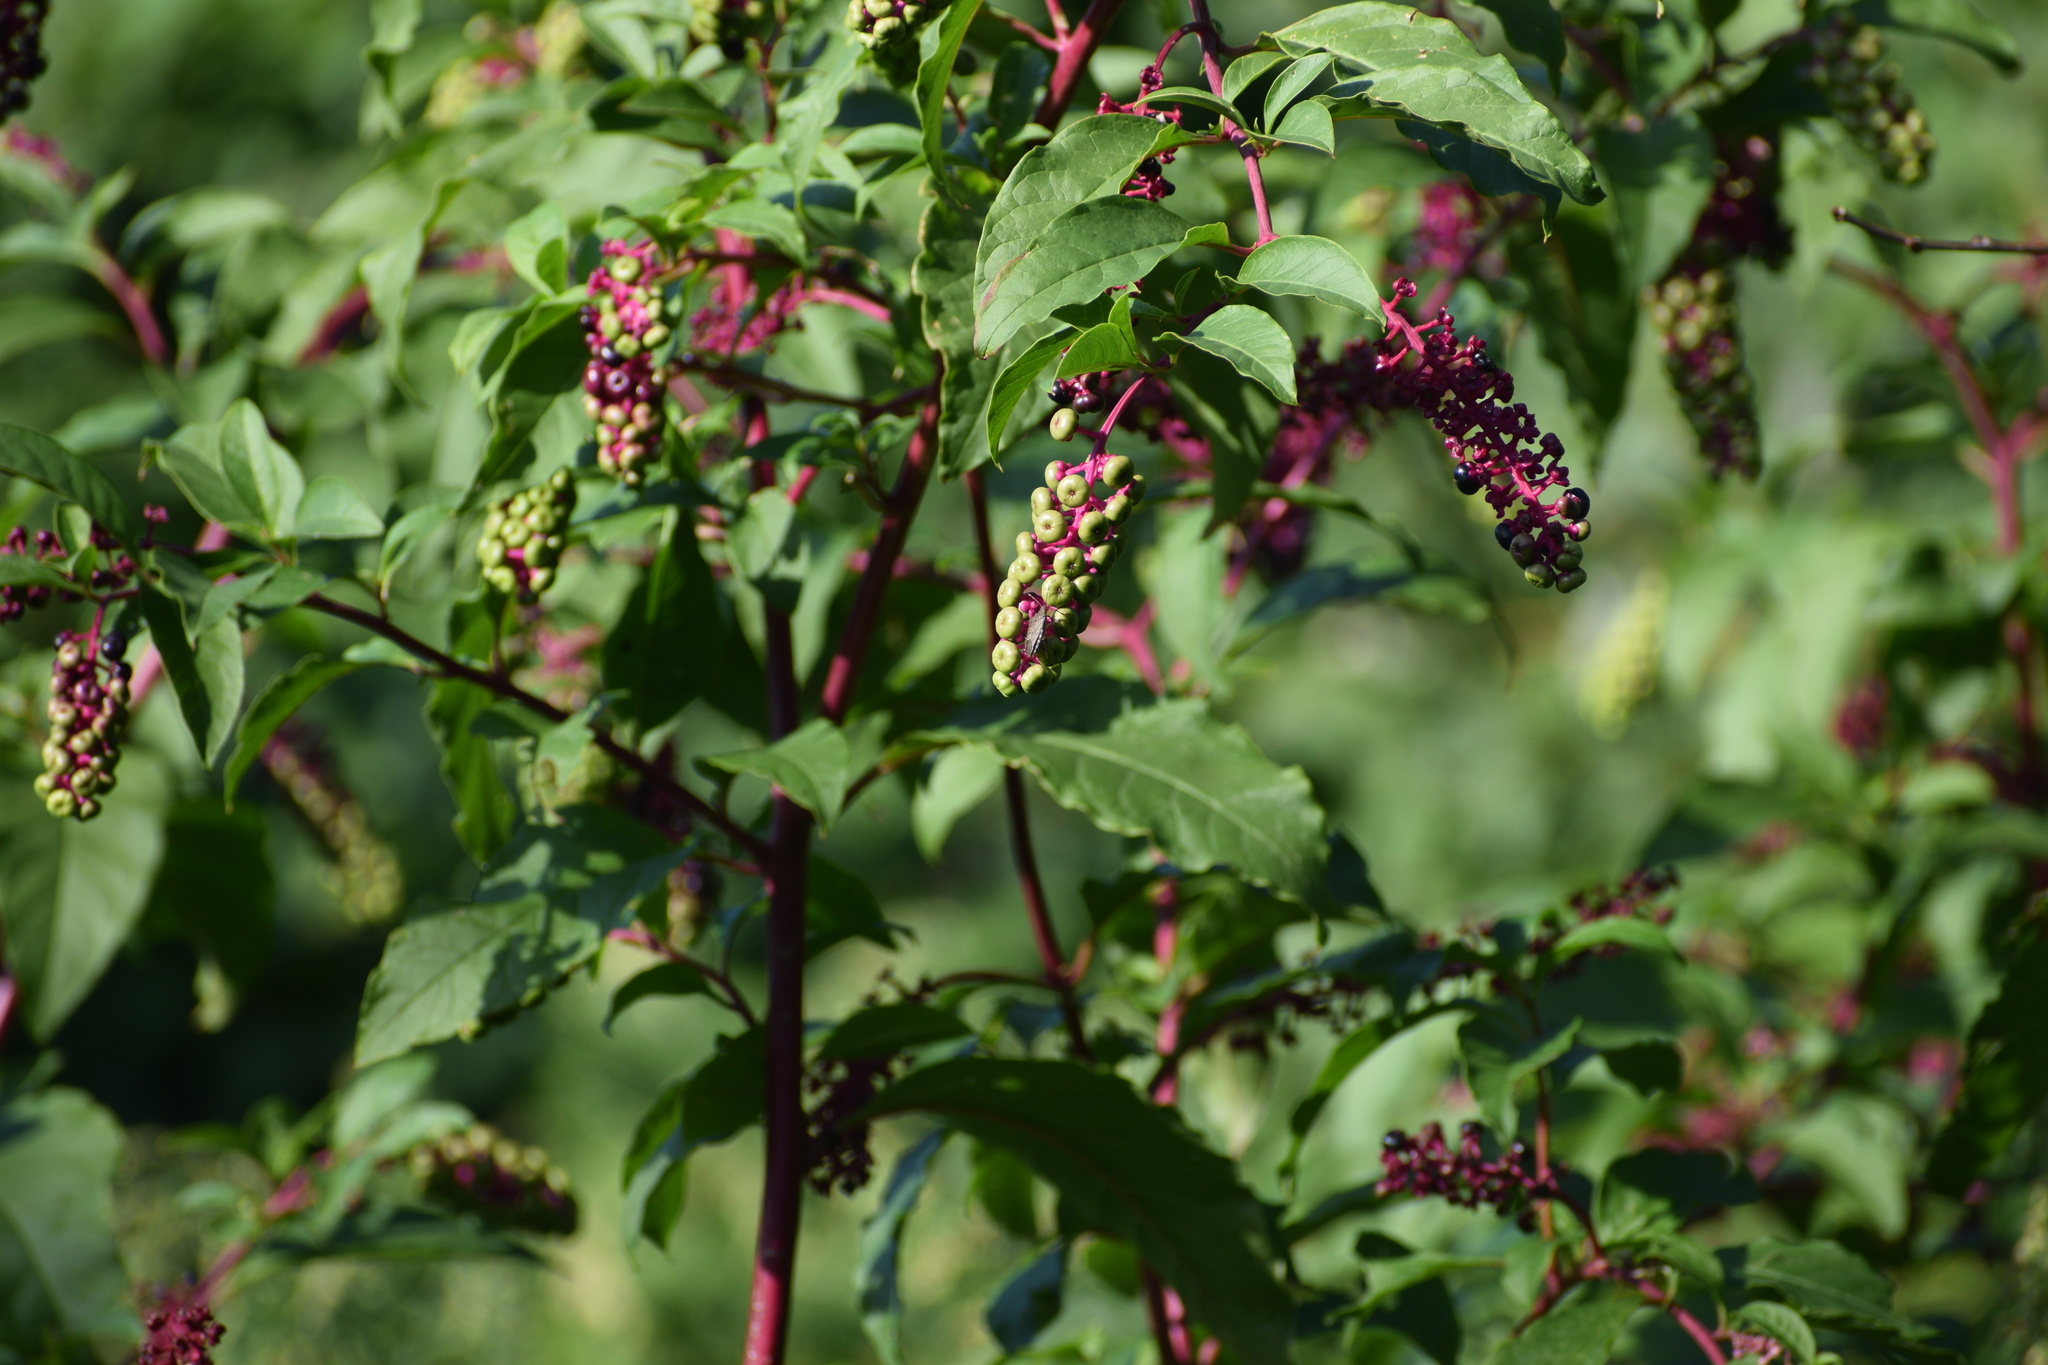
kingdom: Plantae
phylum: Tracheophyta
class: Magnoliopsida
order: Caryophyllales
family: Phytolaccaceae
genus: Phytolacca
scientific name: Phytolacca americana
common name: American pokeweed
